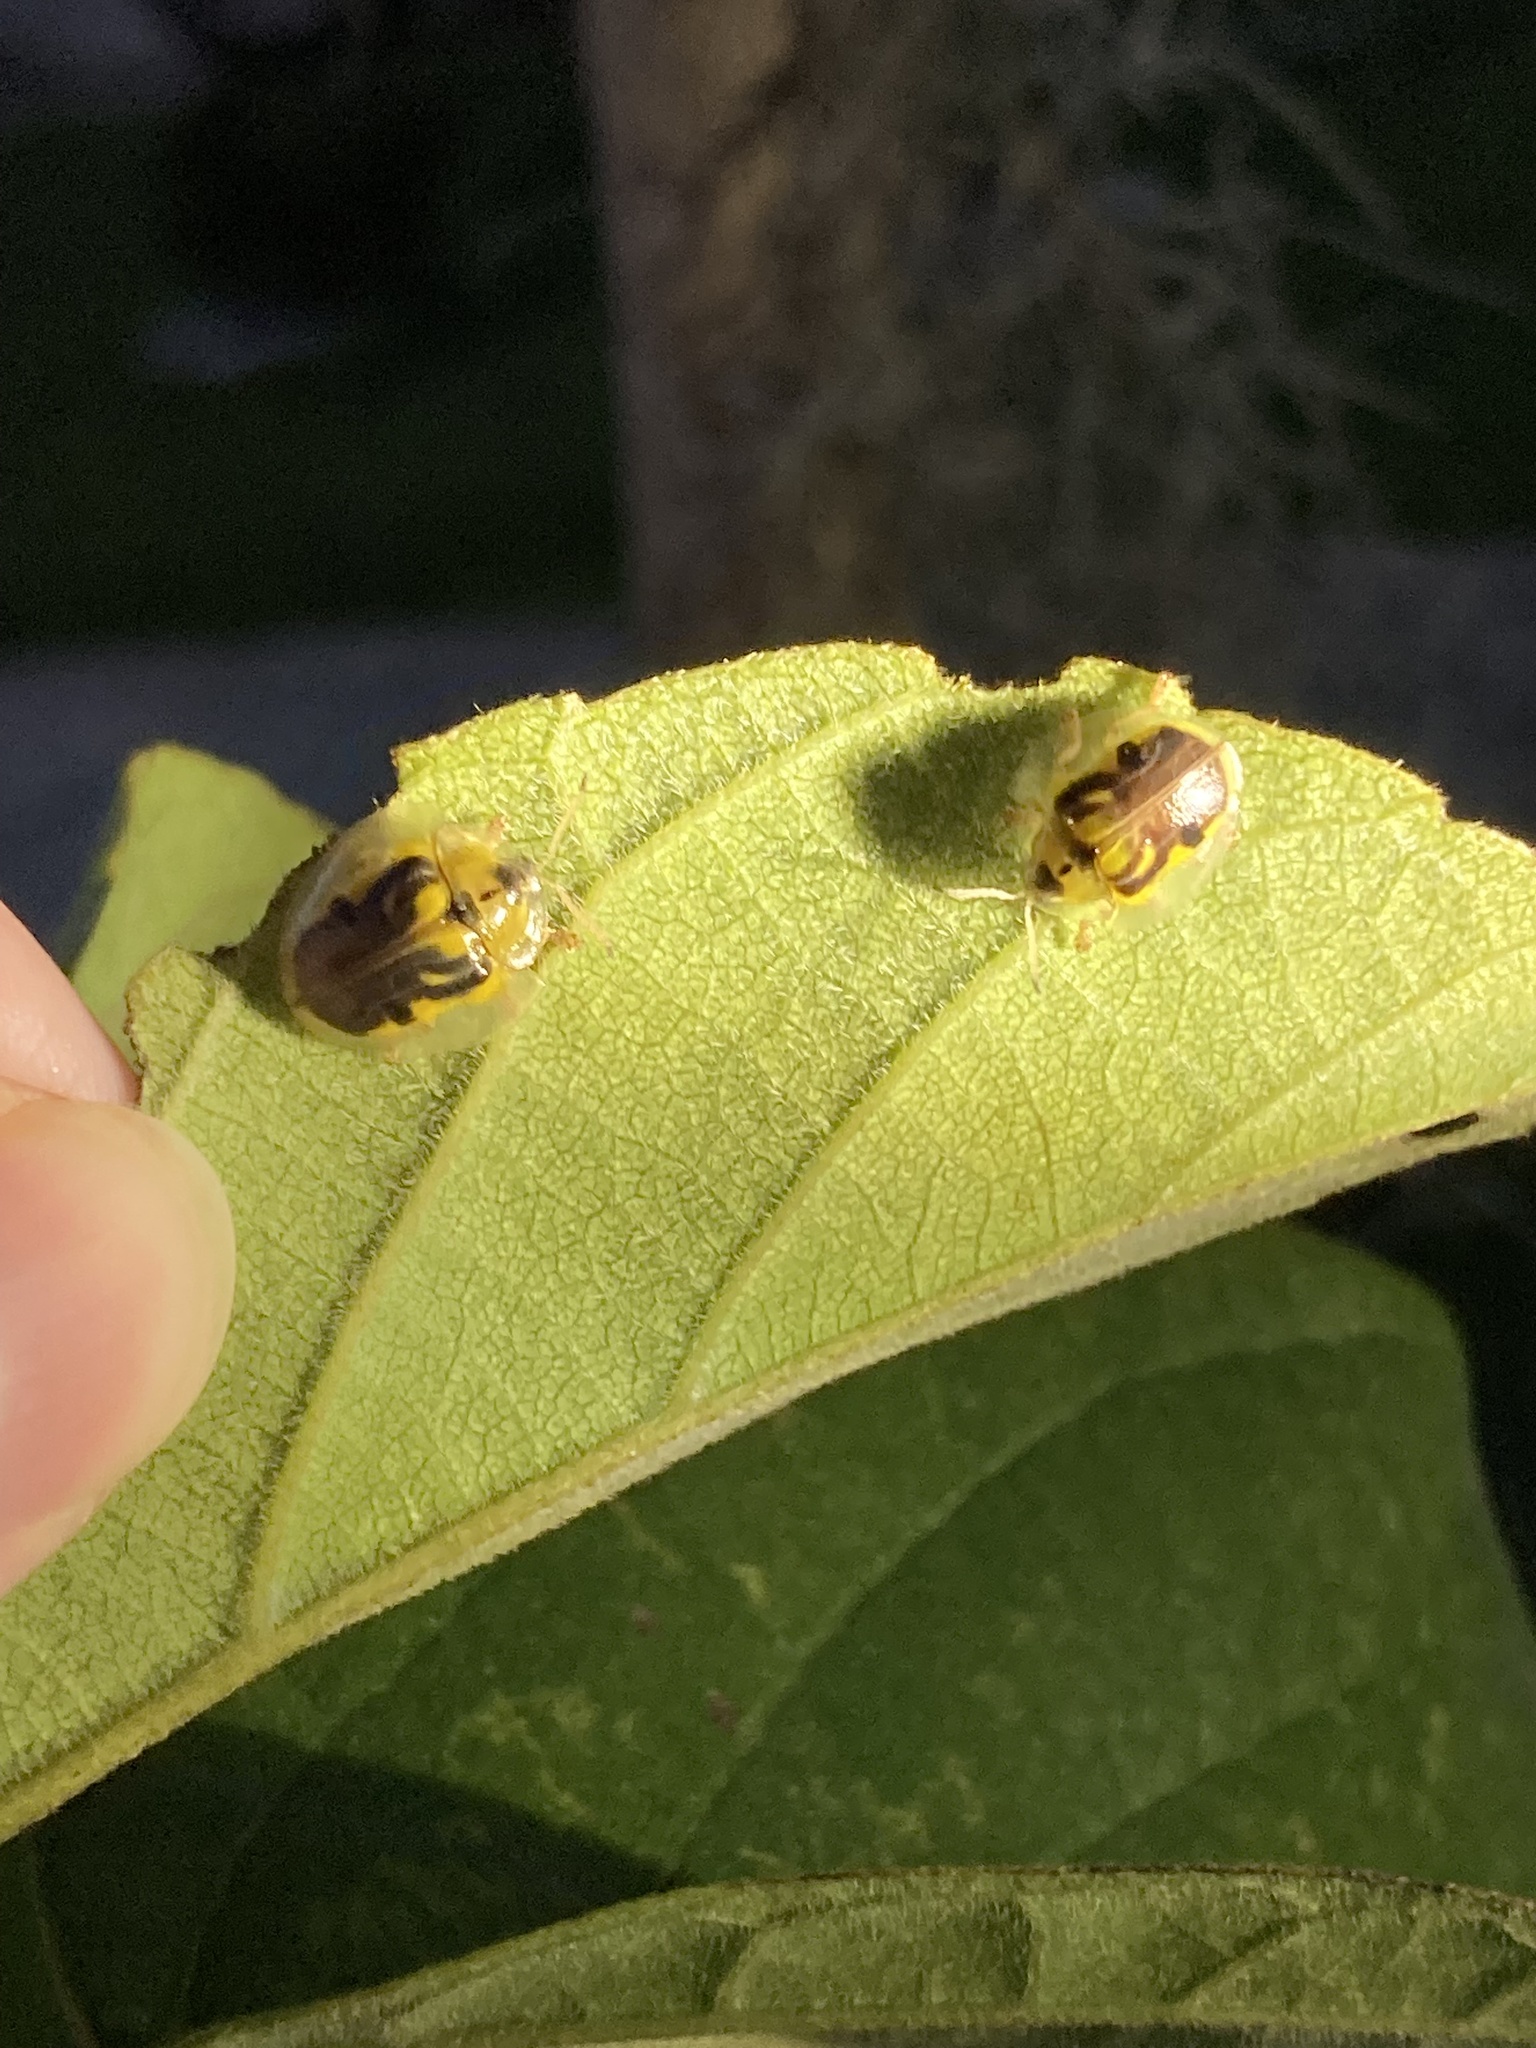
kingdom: Animalia
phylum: Arthropoda
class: Insecta
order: Coleoptera
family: Chrysomelidae
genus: Eurypepla
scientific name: Eurypepla calochroma
